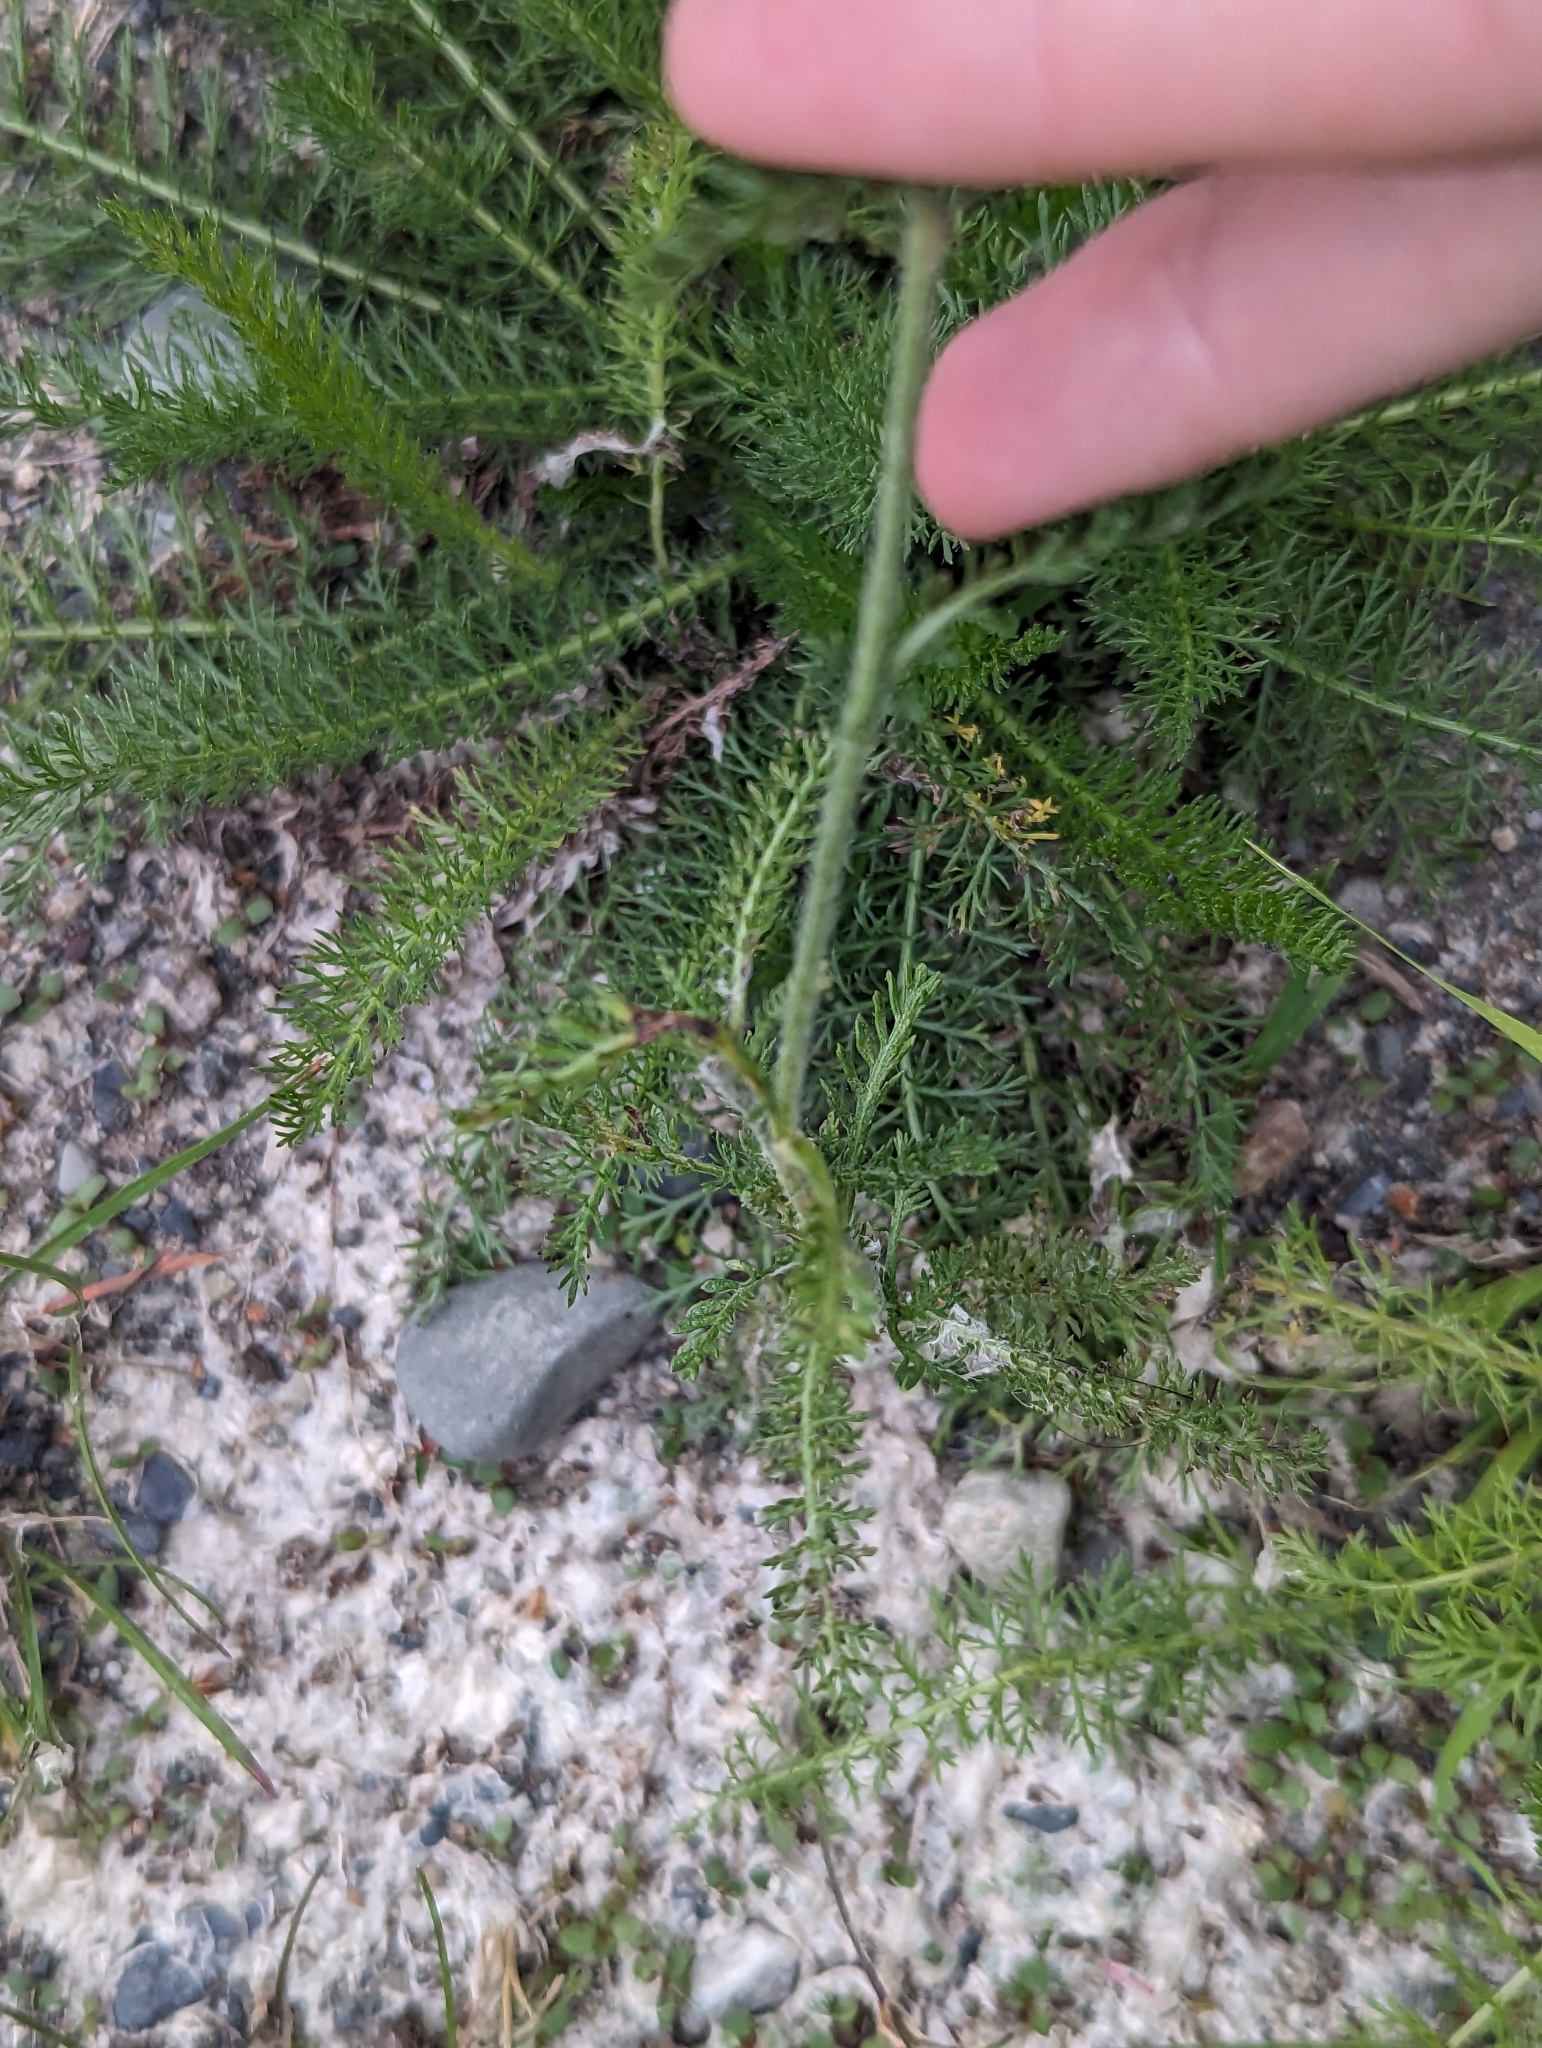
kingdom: Plantae
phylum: Tracheophyta
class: Magnoliopsida
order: Asterales
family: Asteraceae
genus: Achillea
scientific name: Achillea millefolium
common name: Yarrow
